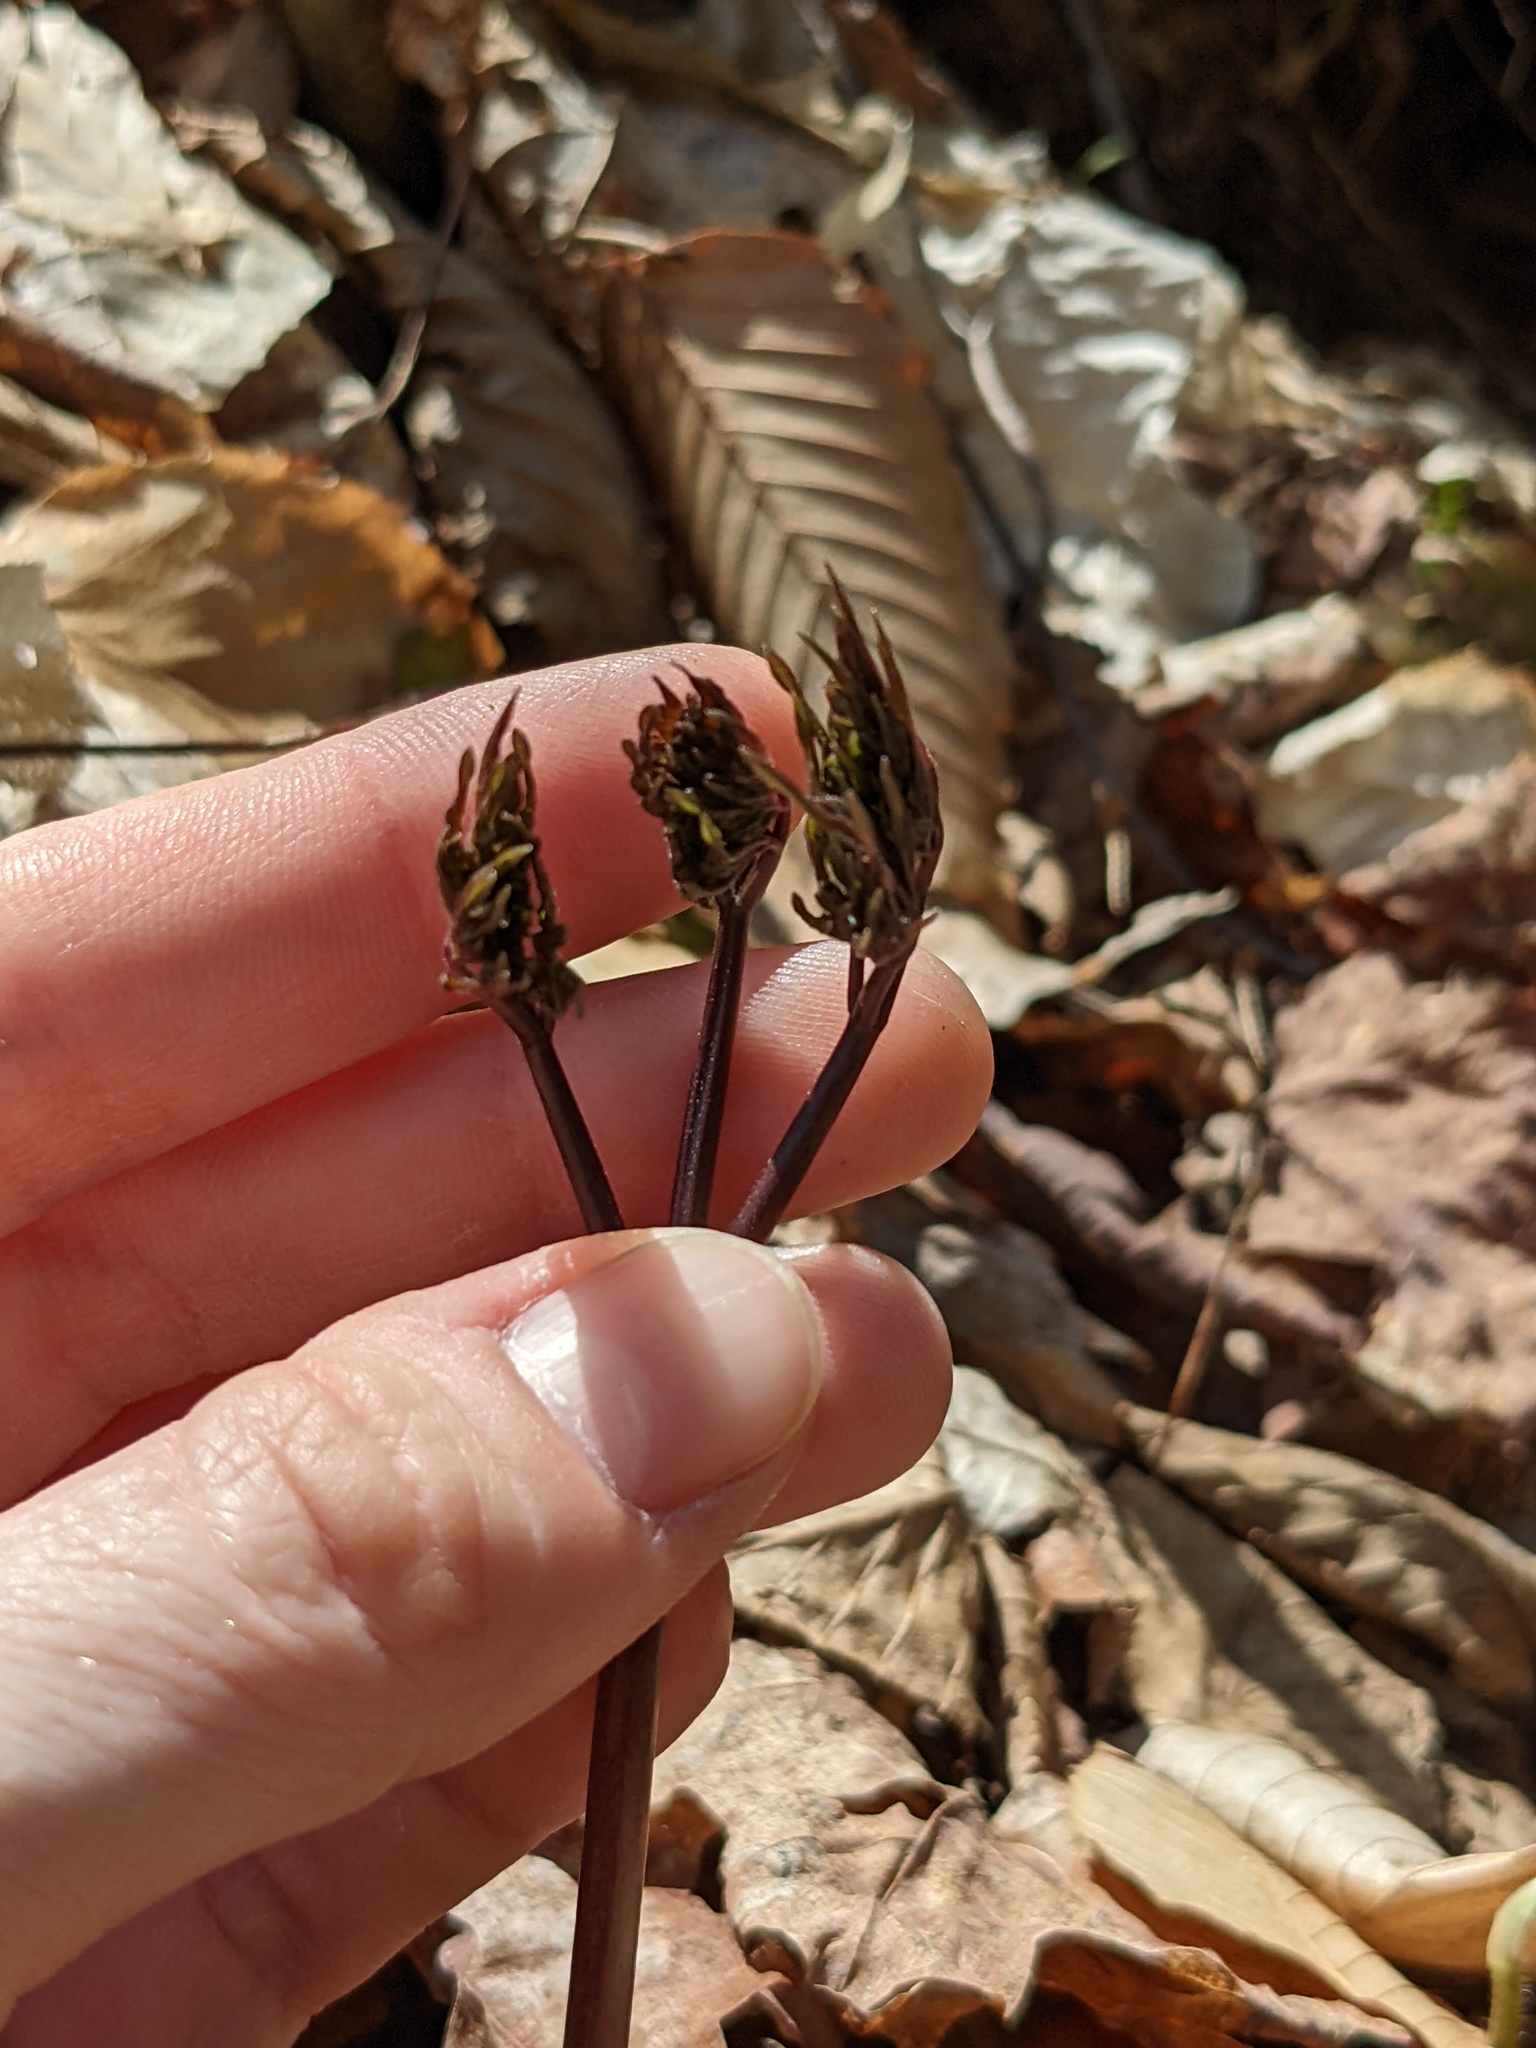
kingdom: Plantae
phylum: Tracheophyta
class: Magnoliopsida
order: Apiales
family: Araliaceae
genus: Aralia
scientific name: Aralia nudicaulis
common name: Wild sarsaparilla
